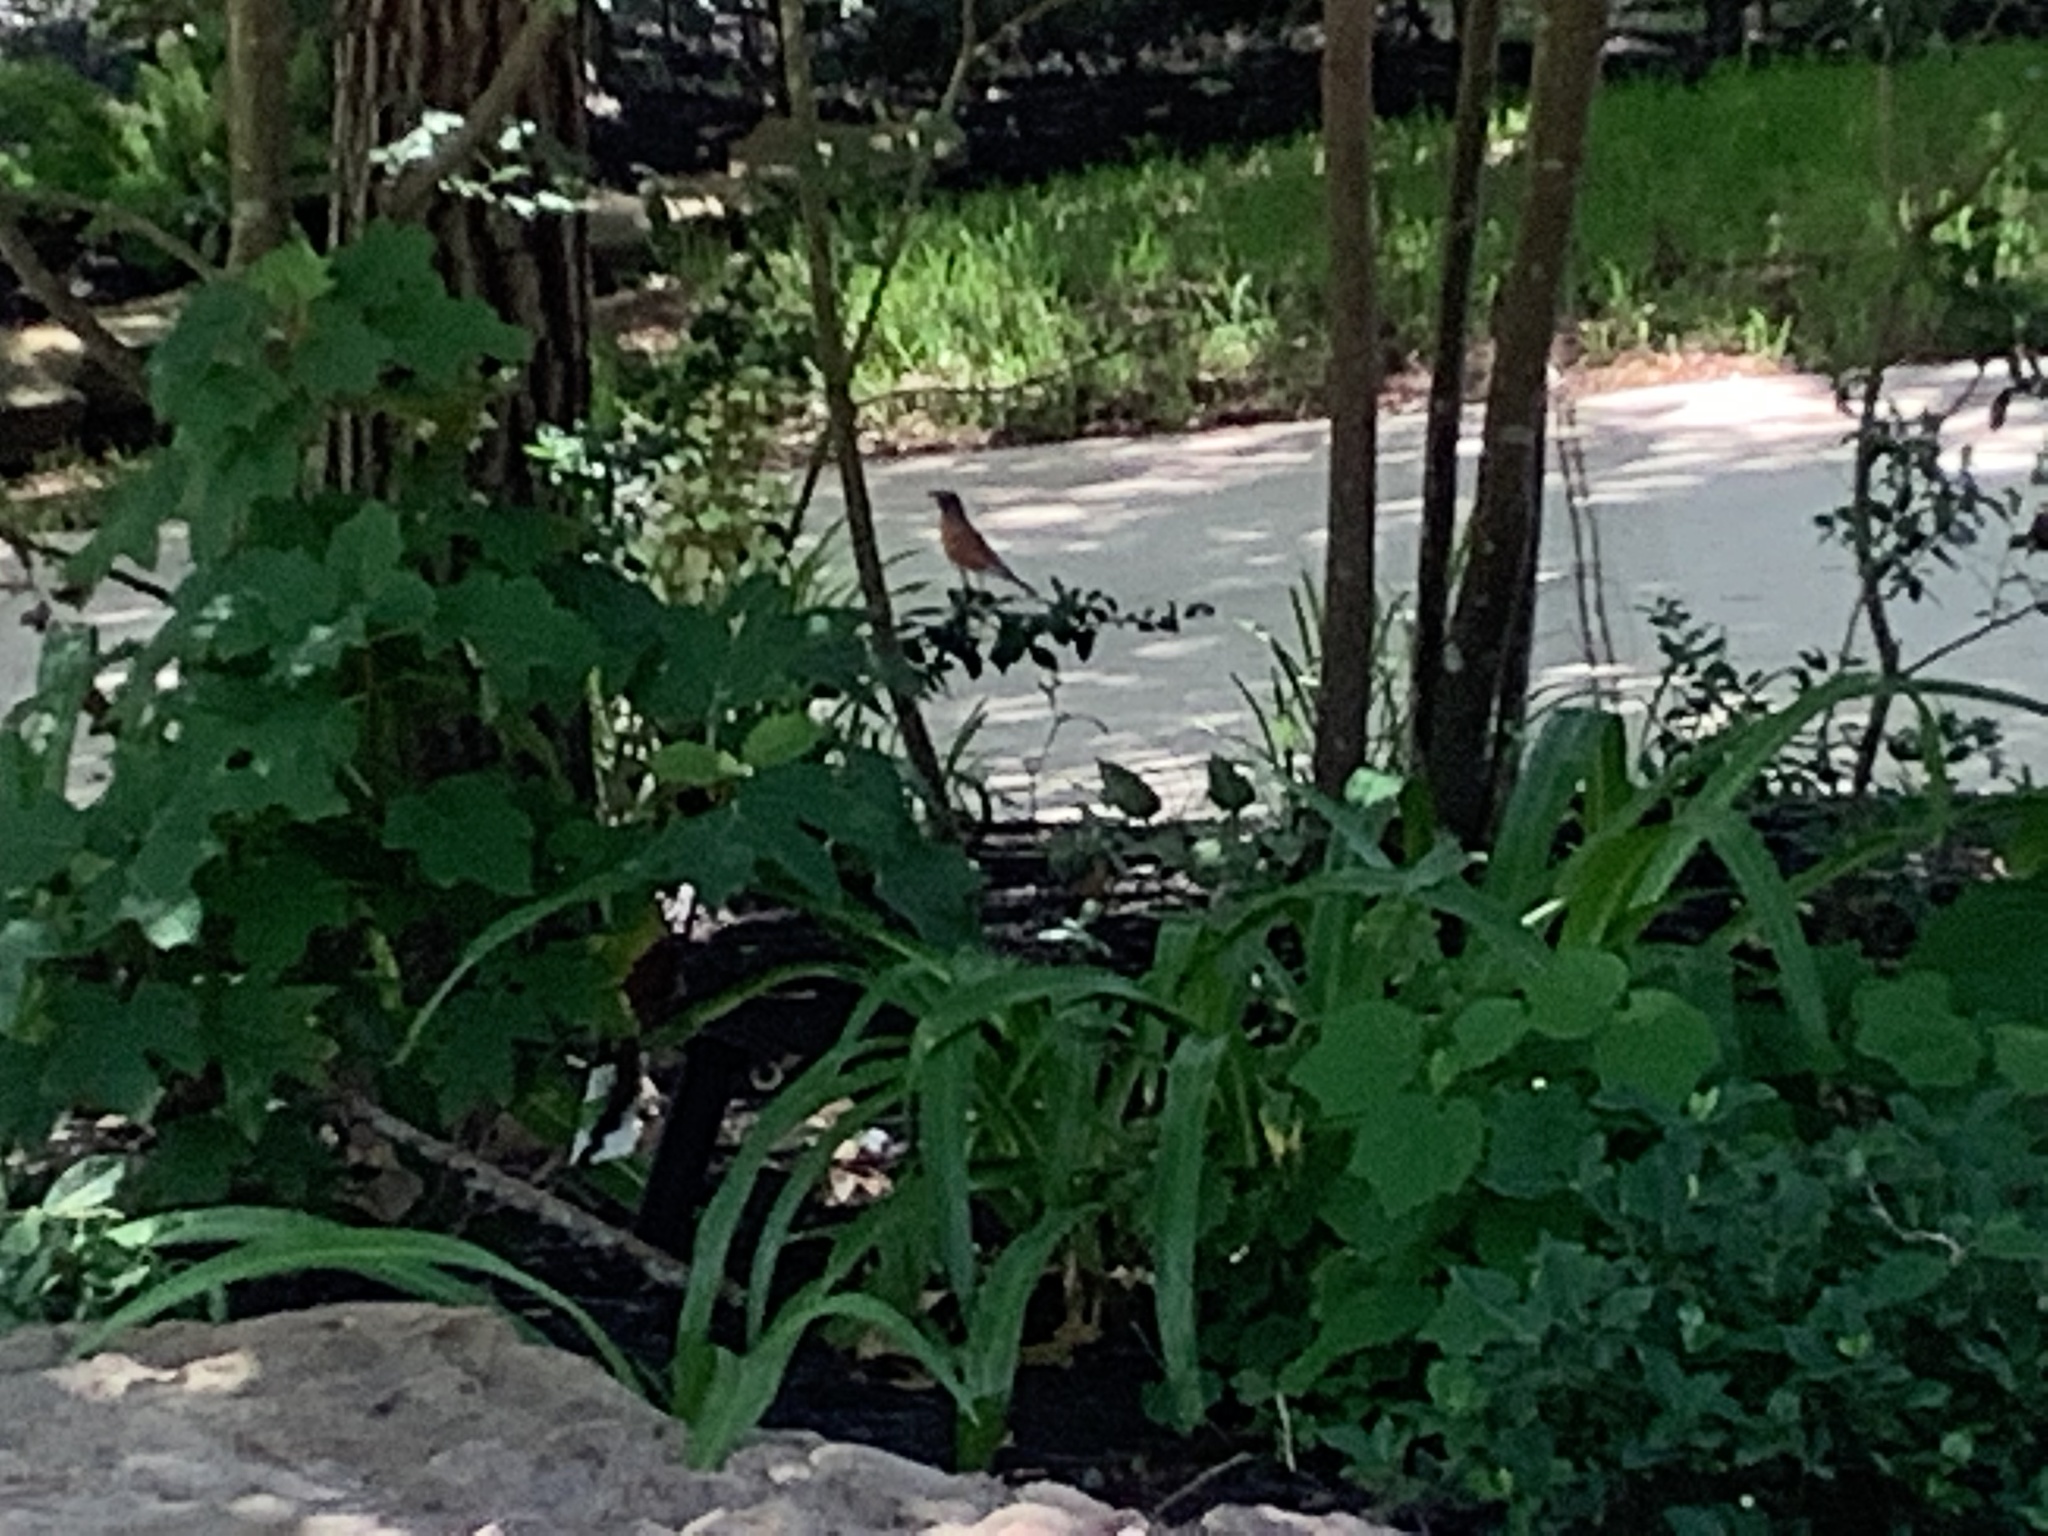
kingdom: Animalia
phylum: Chordata
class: Aves
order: Passeriformes
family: Turdidae
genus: Turdus
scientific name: Turdus migratorius
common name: American robin
